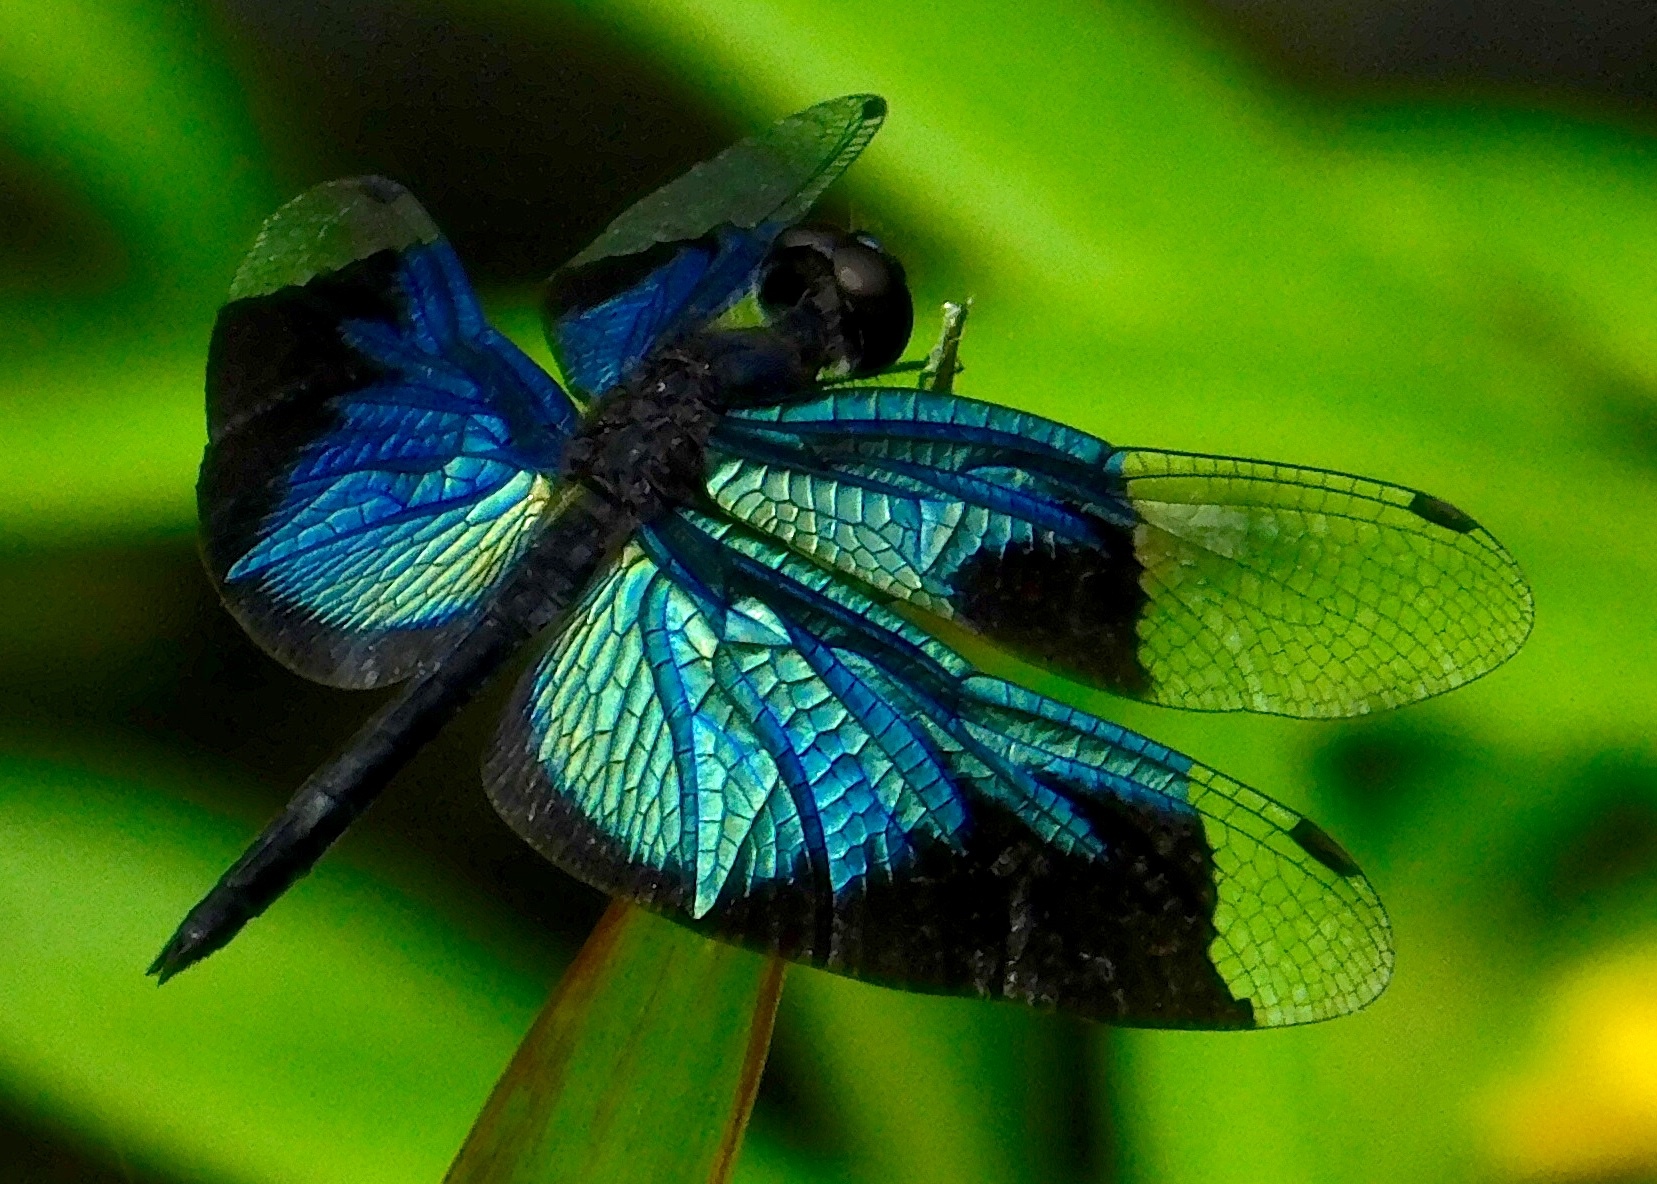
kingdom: Animalia
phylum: Arthropoda
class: Insecta
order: Odonata
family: Libellulidae
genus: Rhyothemis
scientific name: Rhyothemis resplendens
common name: Jewel flutterer
